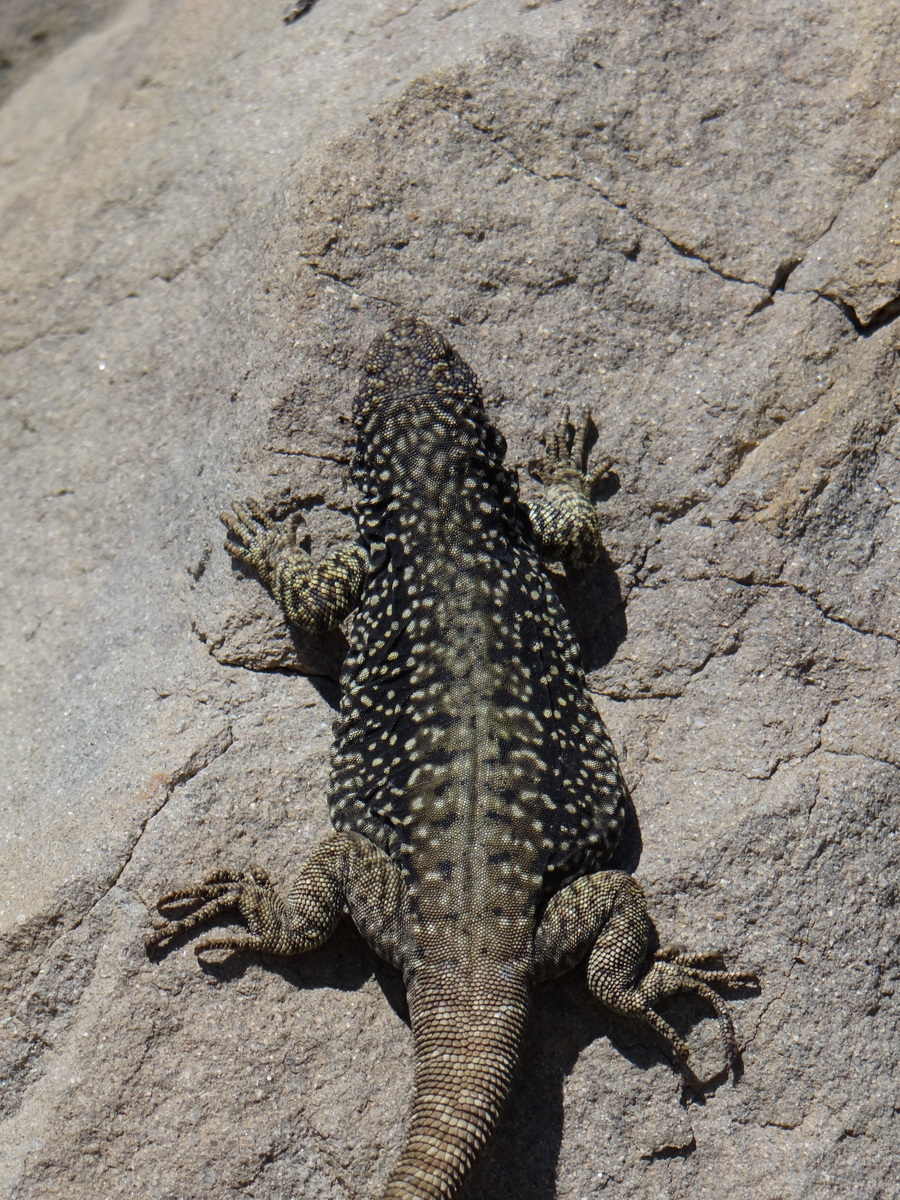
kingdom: Animalia
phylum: Chordata
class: Squamata
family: Liolaemidae
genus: Phymaturus
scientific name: Phymaturus rahuensis
